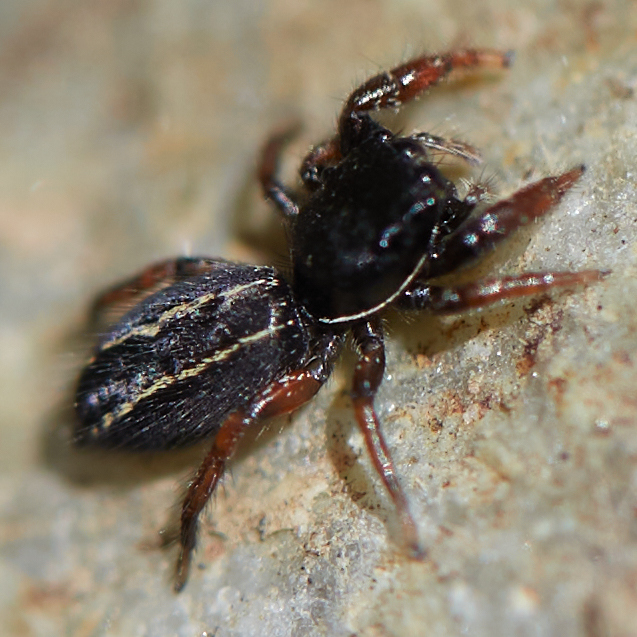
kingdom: Animalia
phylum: Arthropoda
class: Arachnida
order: Araneae
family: Salticidae
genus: Metacyrba
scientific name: Metacyrba taeniola
